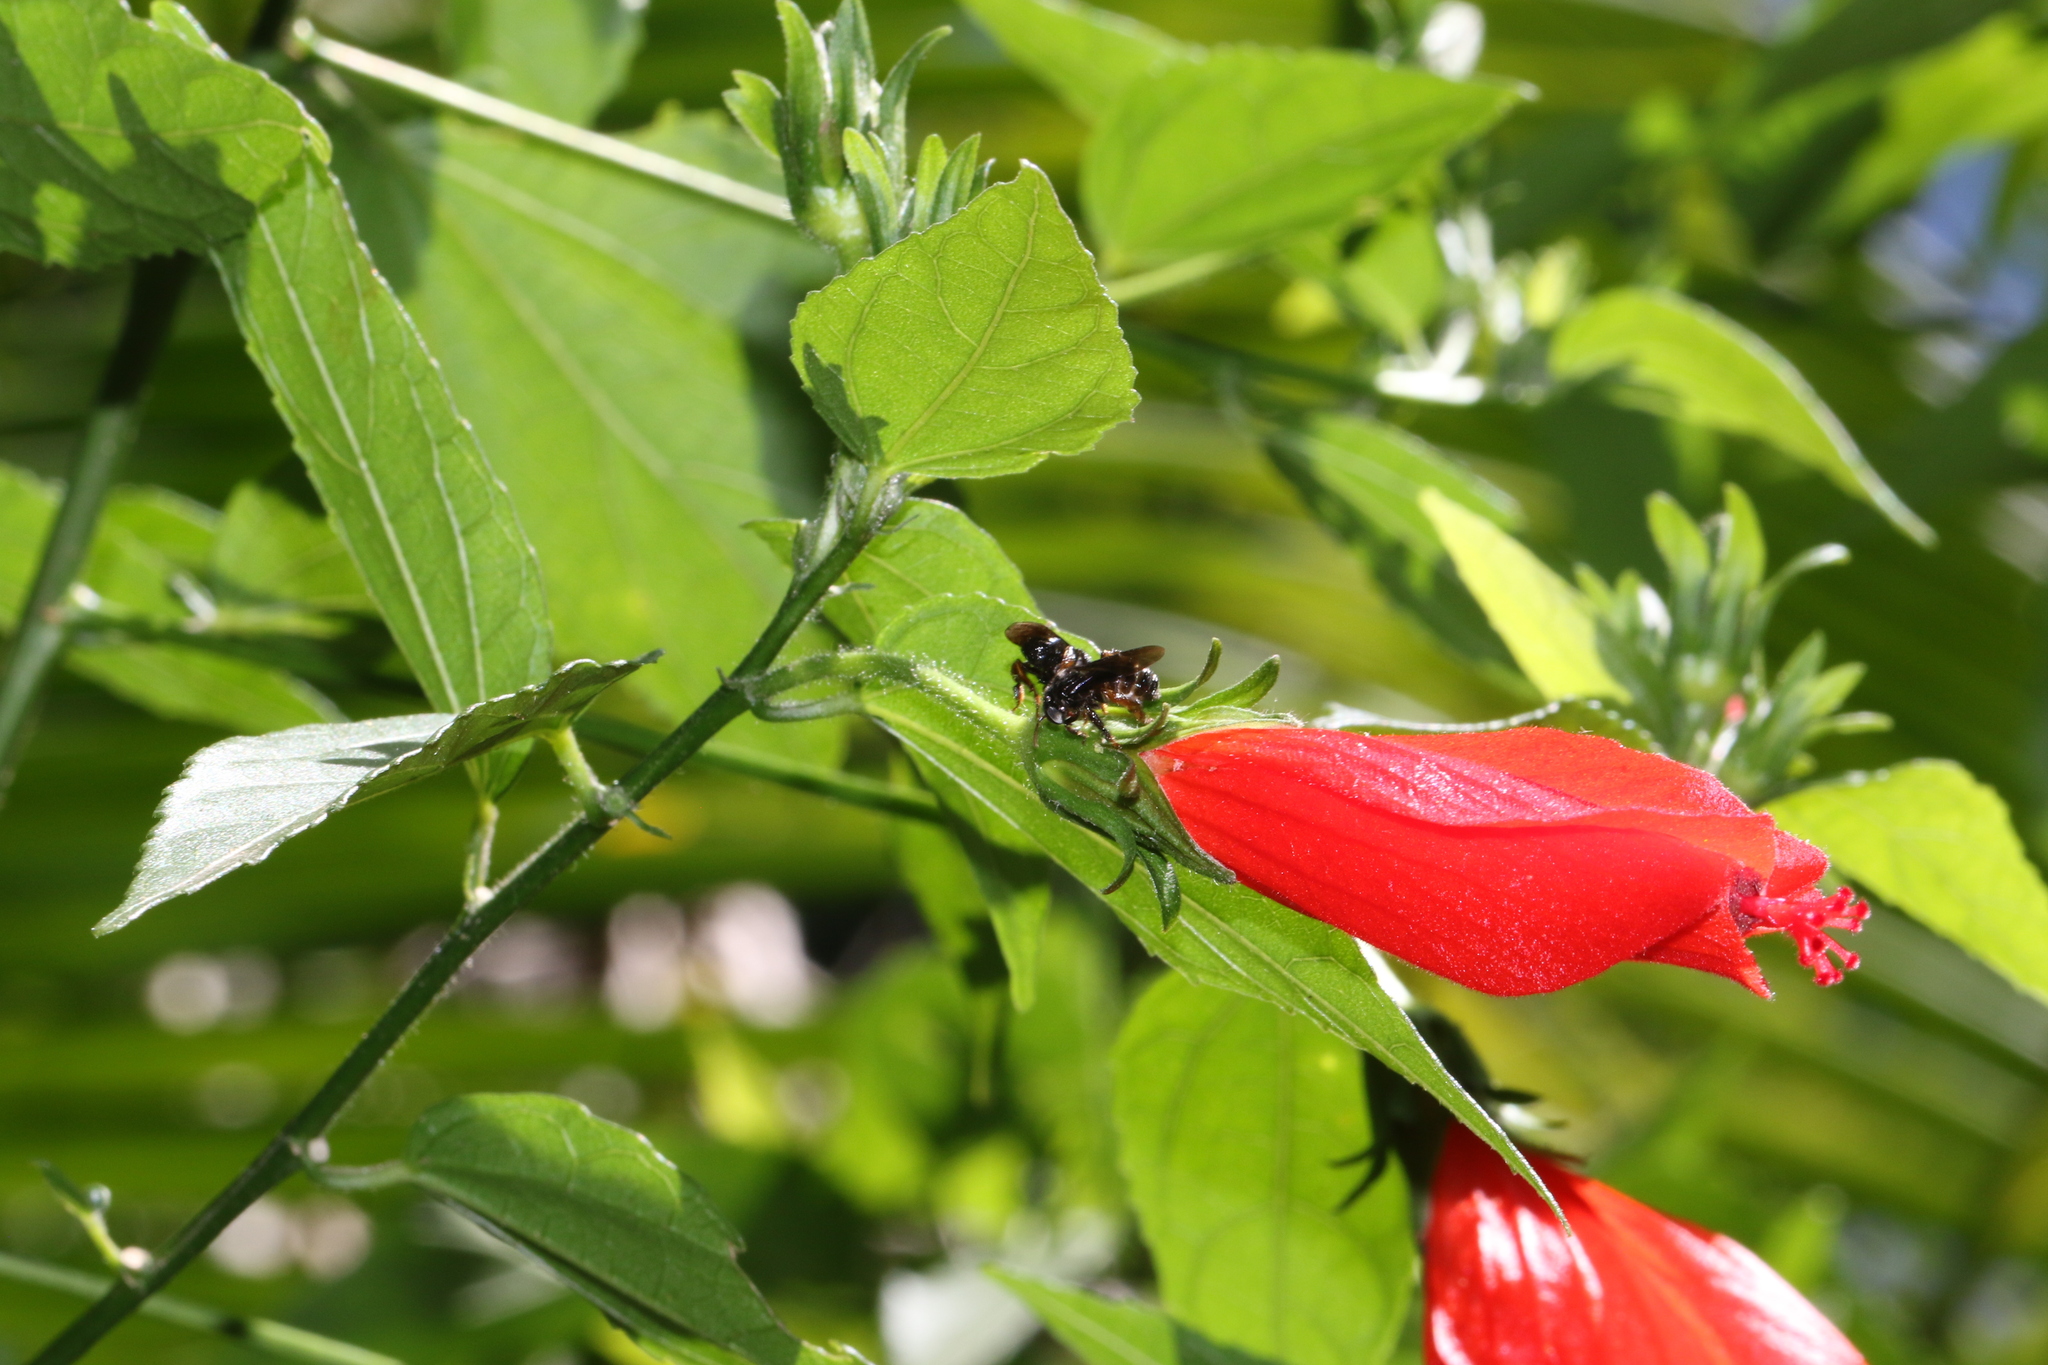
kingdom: Animalia
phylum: Arthropoda
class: Insecta
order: Hymenoptera
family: Apidae
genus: Trigona
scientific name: Trigona spinipes
